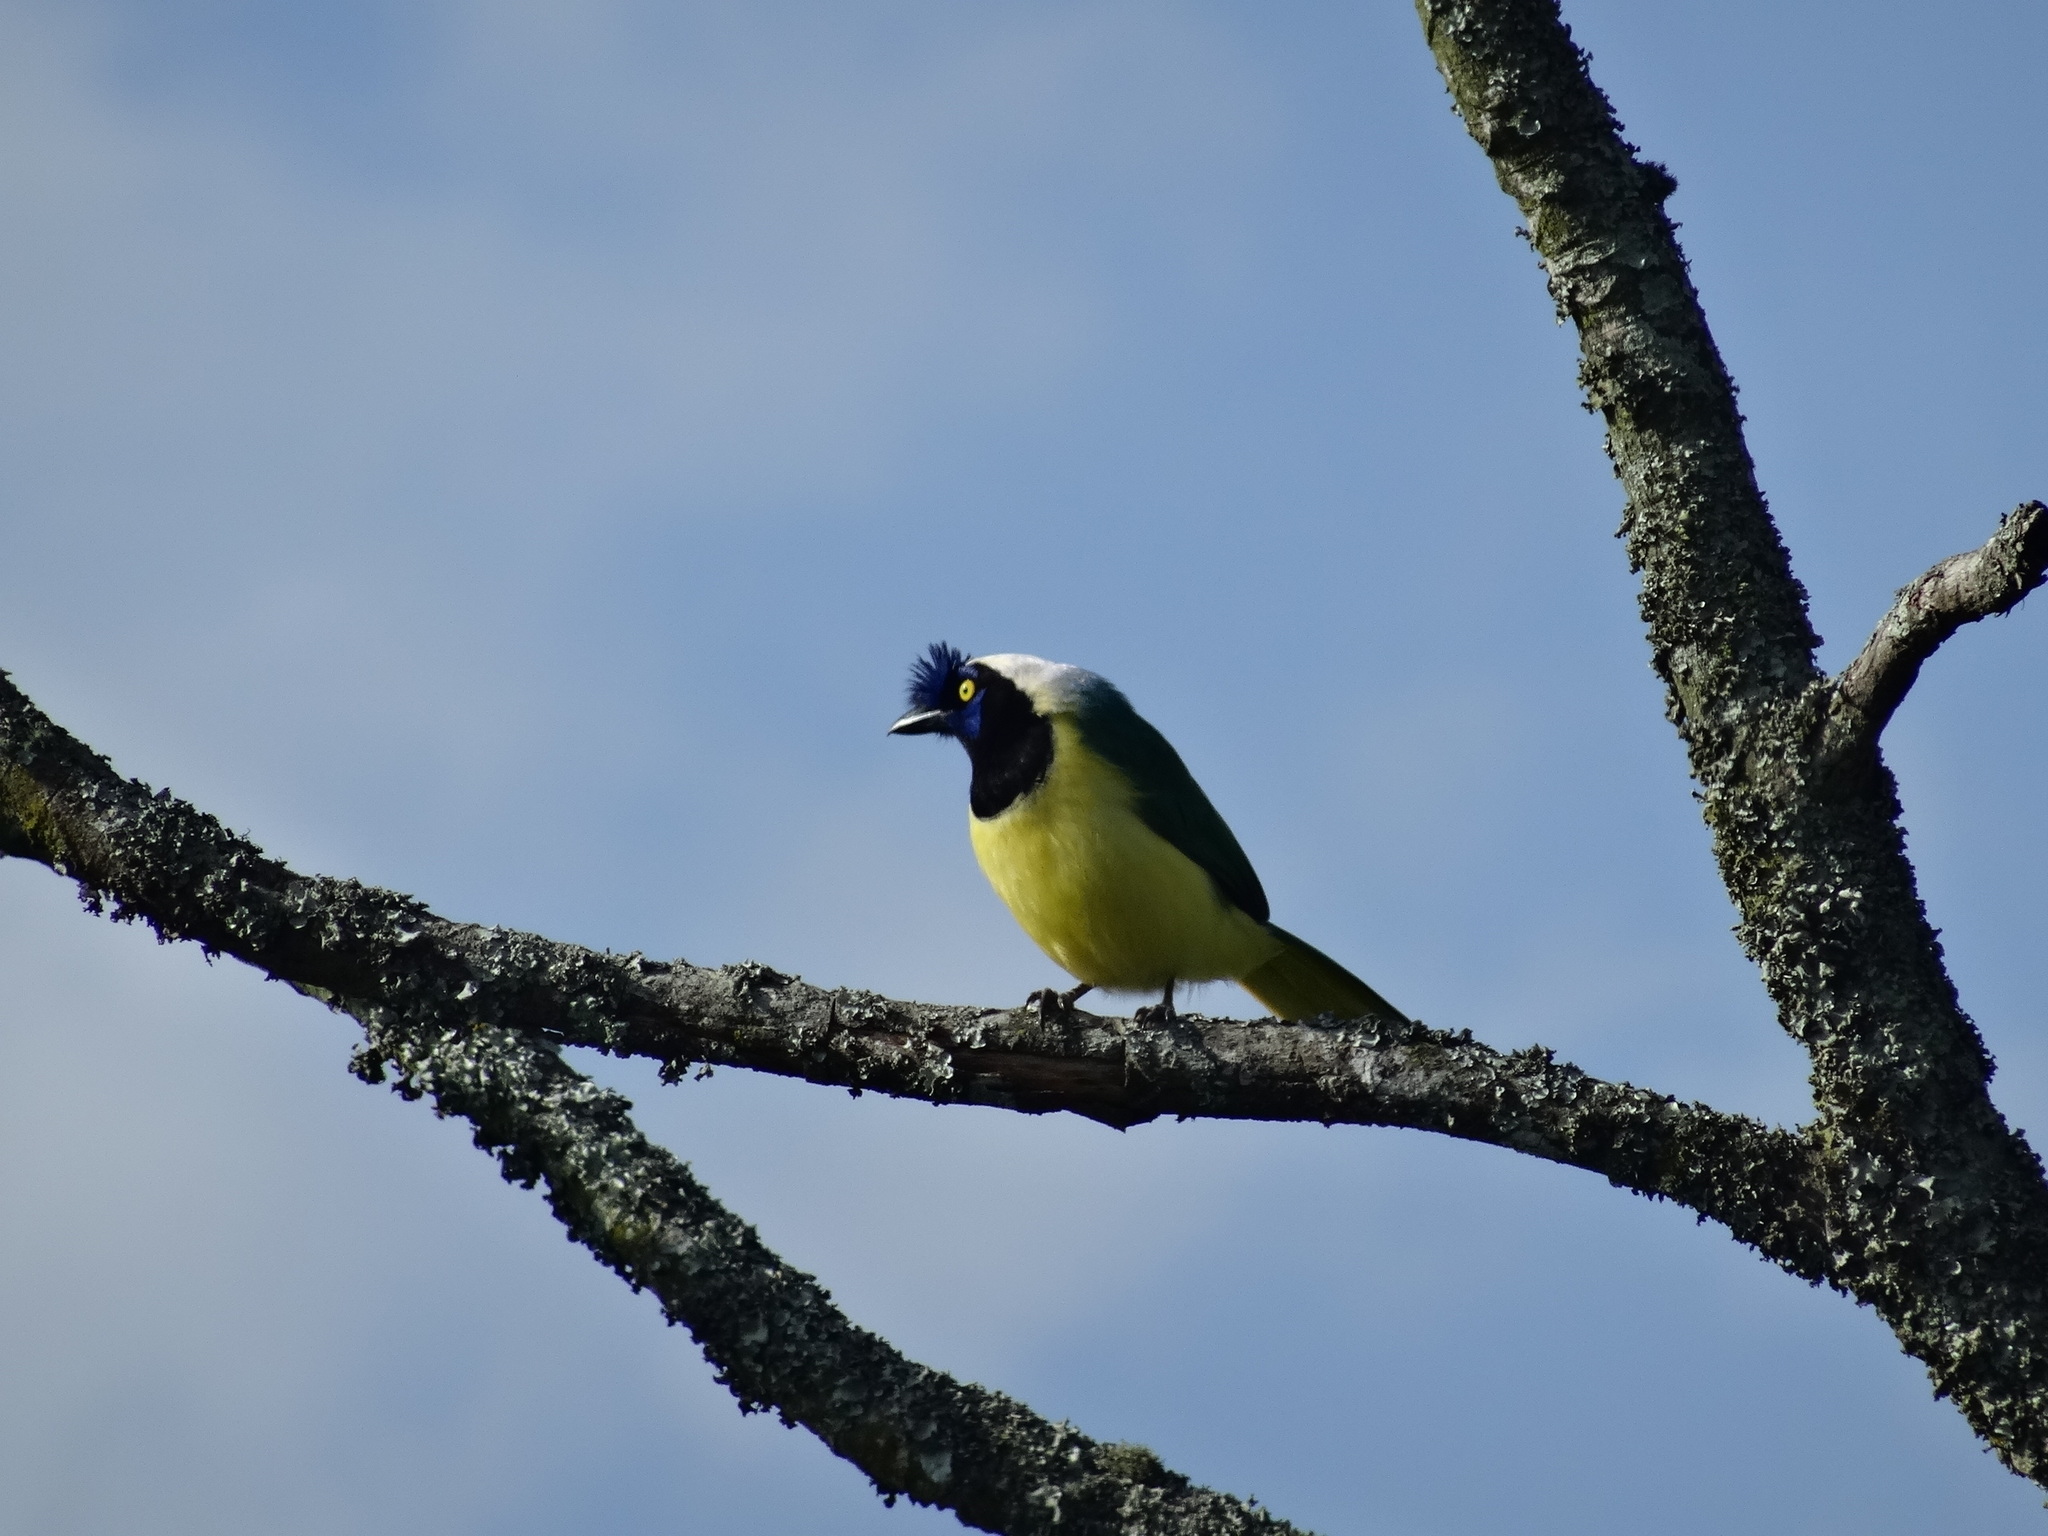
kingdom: Animalia
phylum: Chordata
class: Aves
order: Passeriformes
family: Corvidae
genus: Cyanocorax
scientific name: Cyanocorax yncas
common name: Green jay
